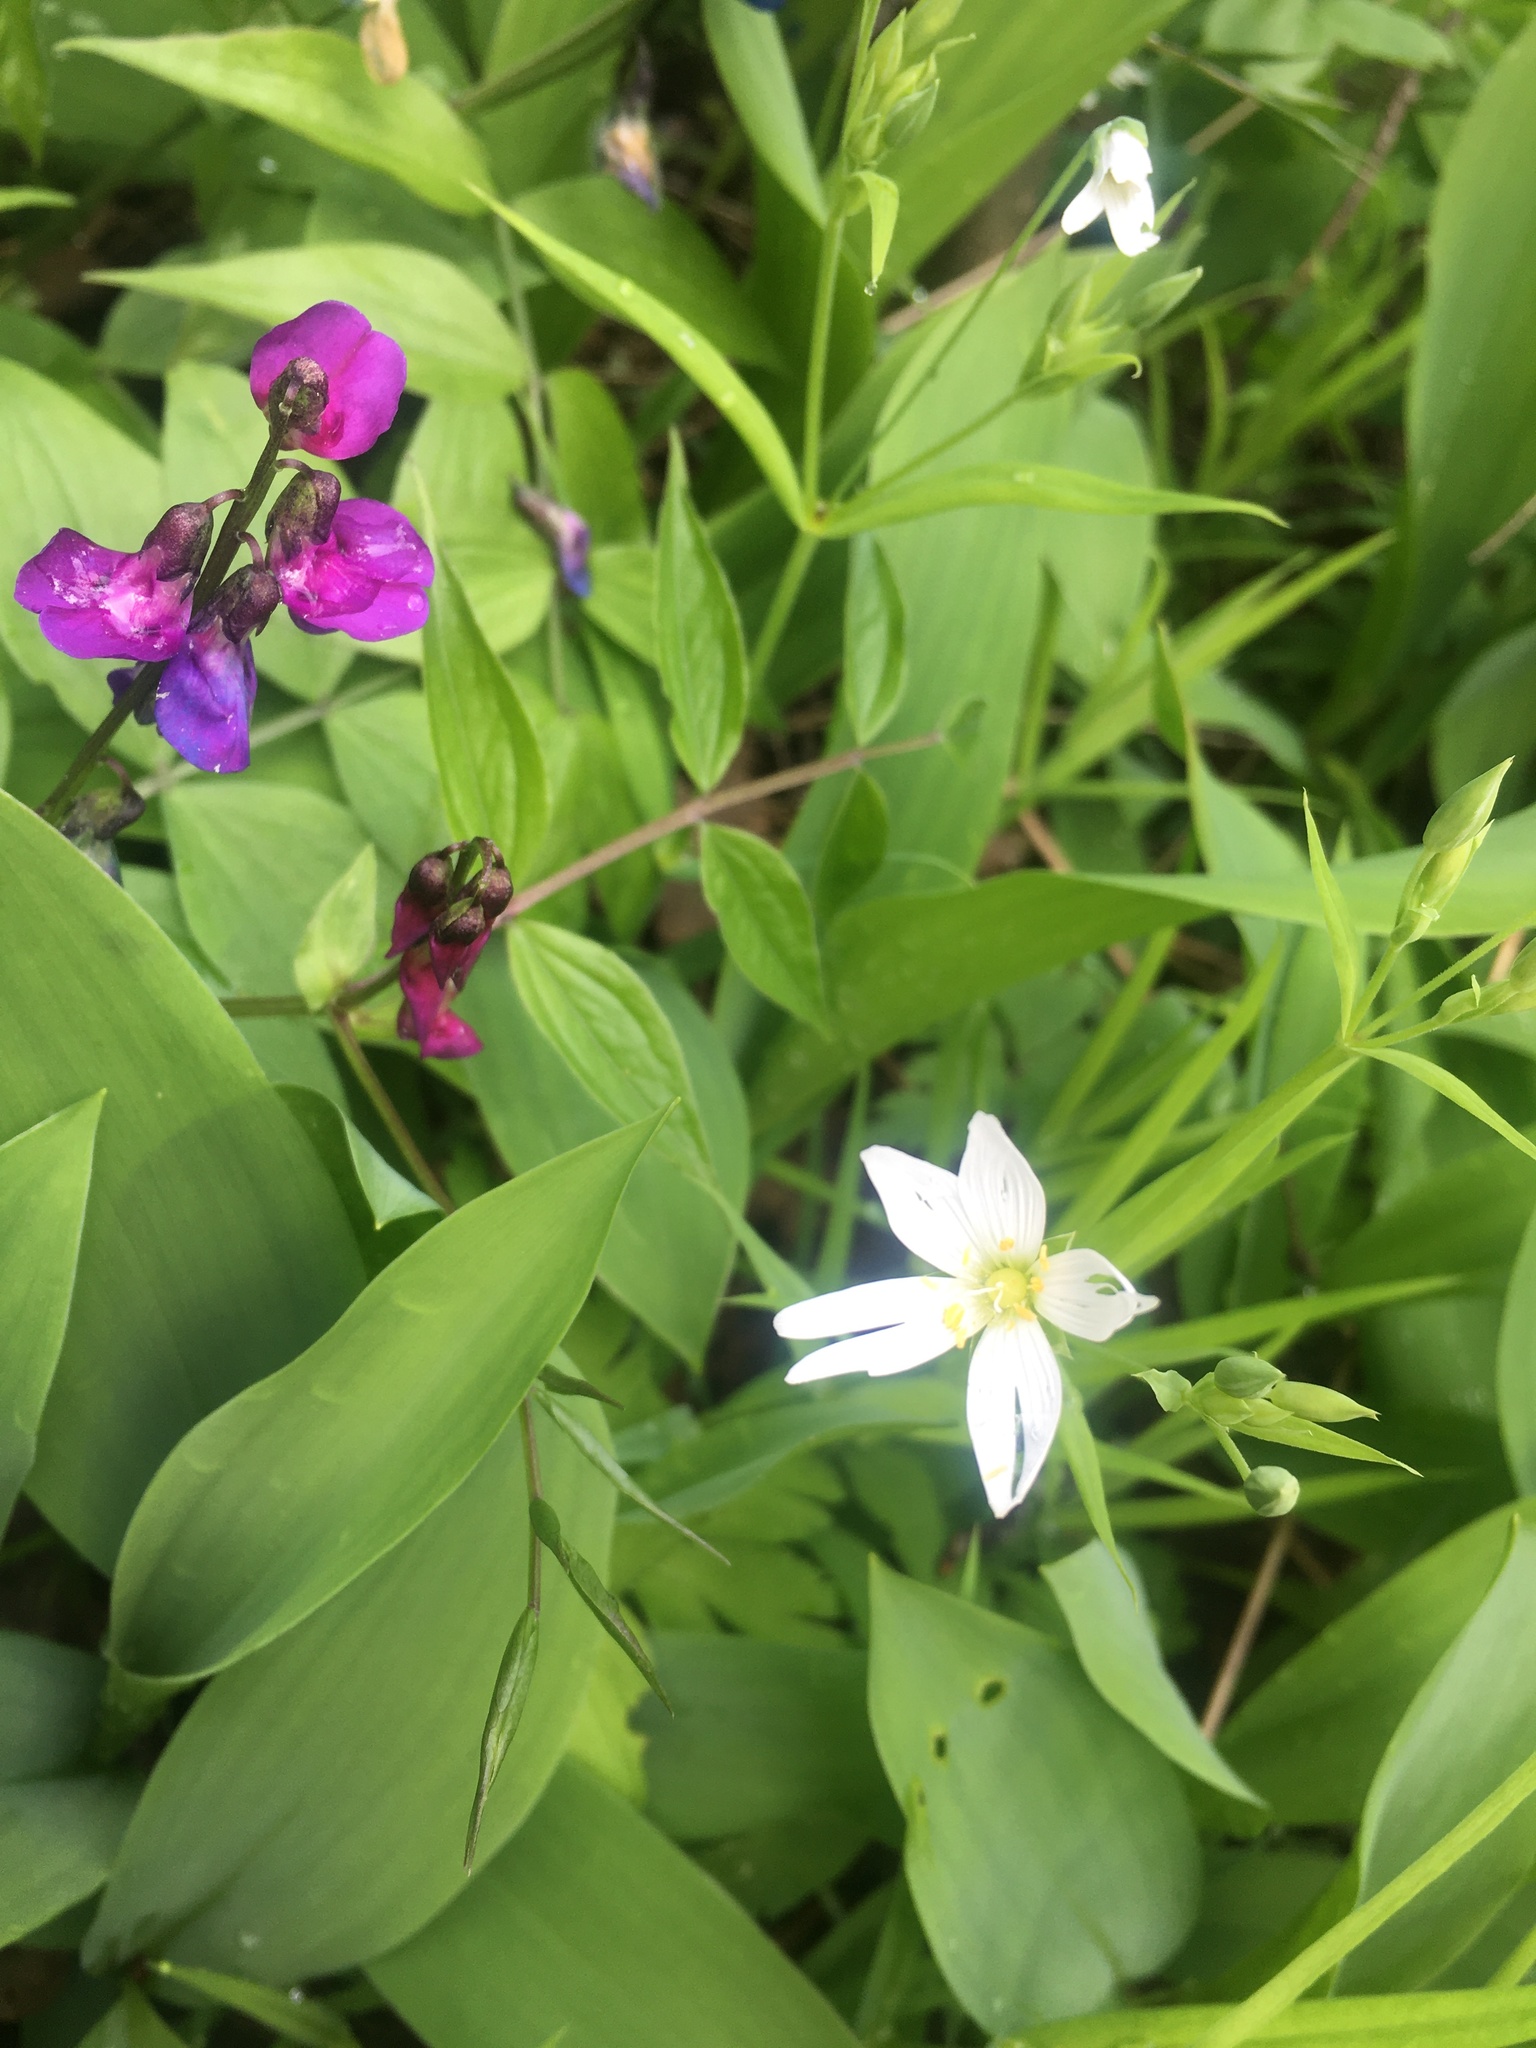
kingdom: Plantae
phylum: Tracheophyta
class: Magnoliopsida
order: Caryophyllales
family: Caryophyllaceae
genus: Rabelera
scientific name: Rabelera holostea
